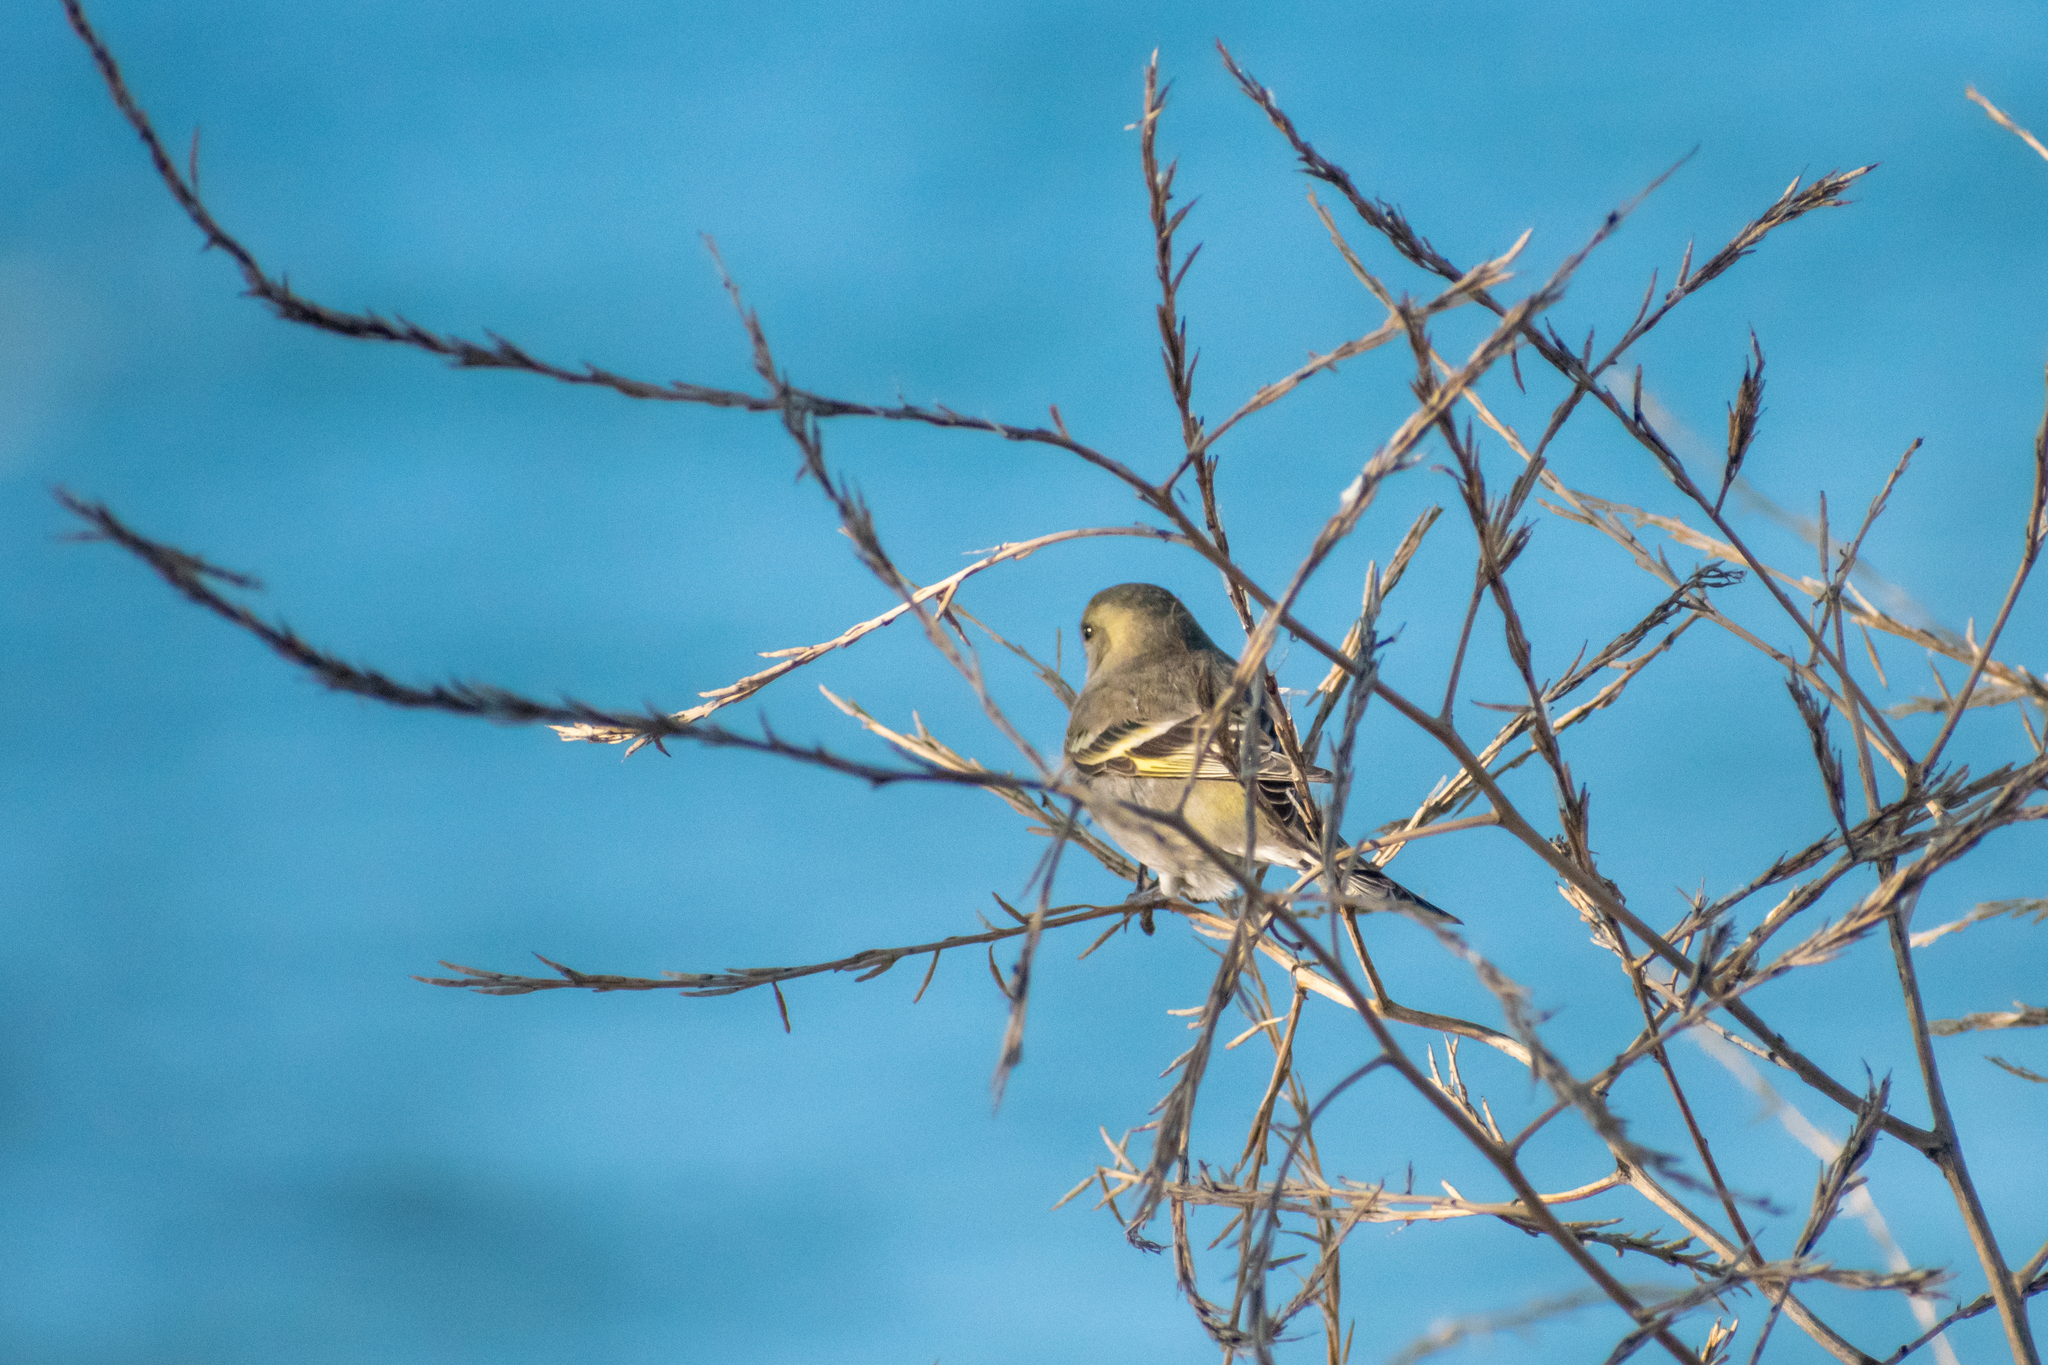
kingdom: Animalia
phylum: Chordata
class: Aves
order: Passeriformes
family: Fringillidae
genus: Spinus
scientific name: Spinus barbatus
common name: Black-chinned siskin
